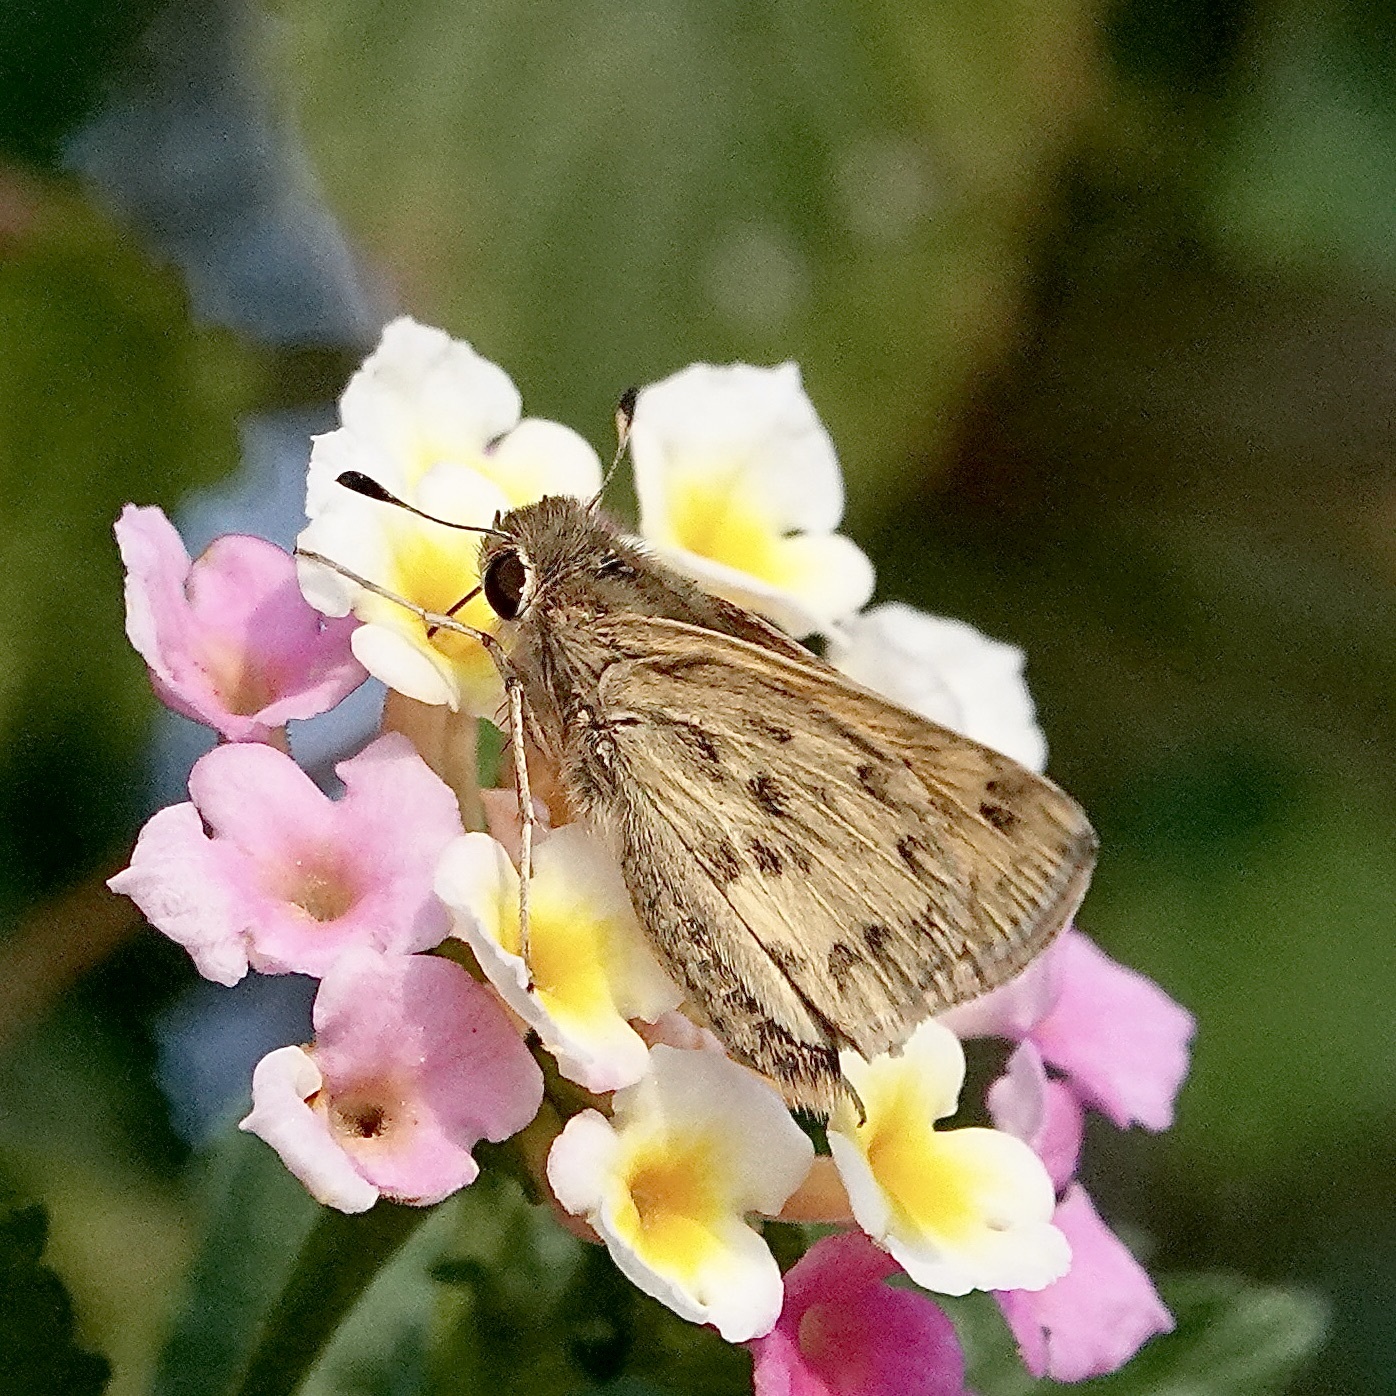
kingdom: Animalia
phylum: Arthropoda
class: Insecta
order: Lepidoptera
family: Hesperiidae
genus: Hylephila
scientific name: Hylephila phyleus
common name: Fiery skipper
